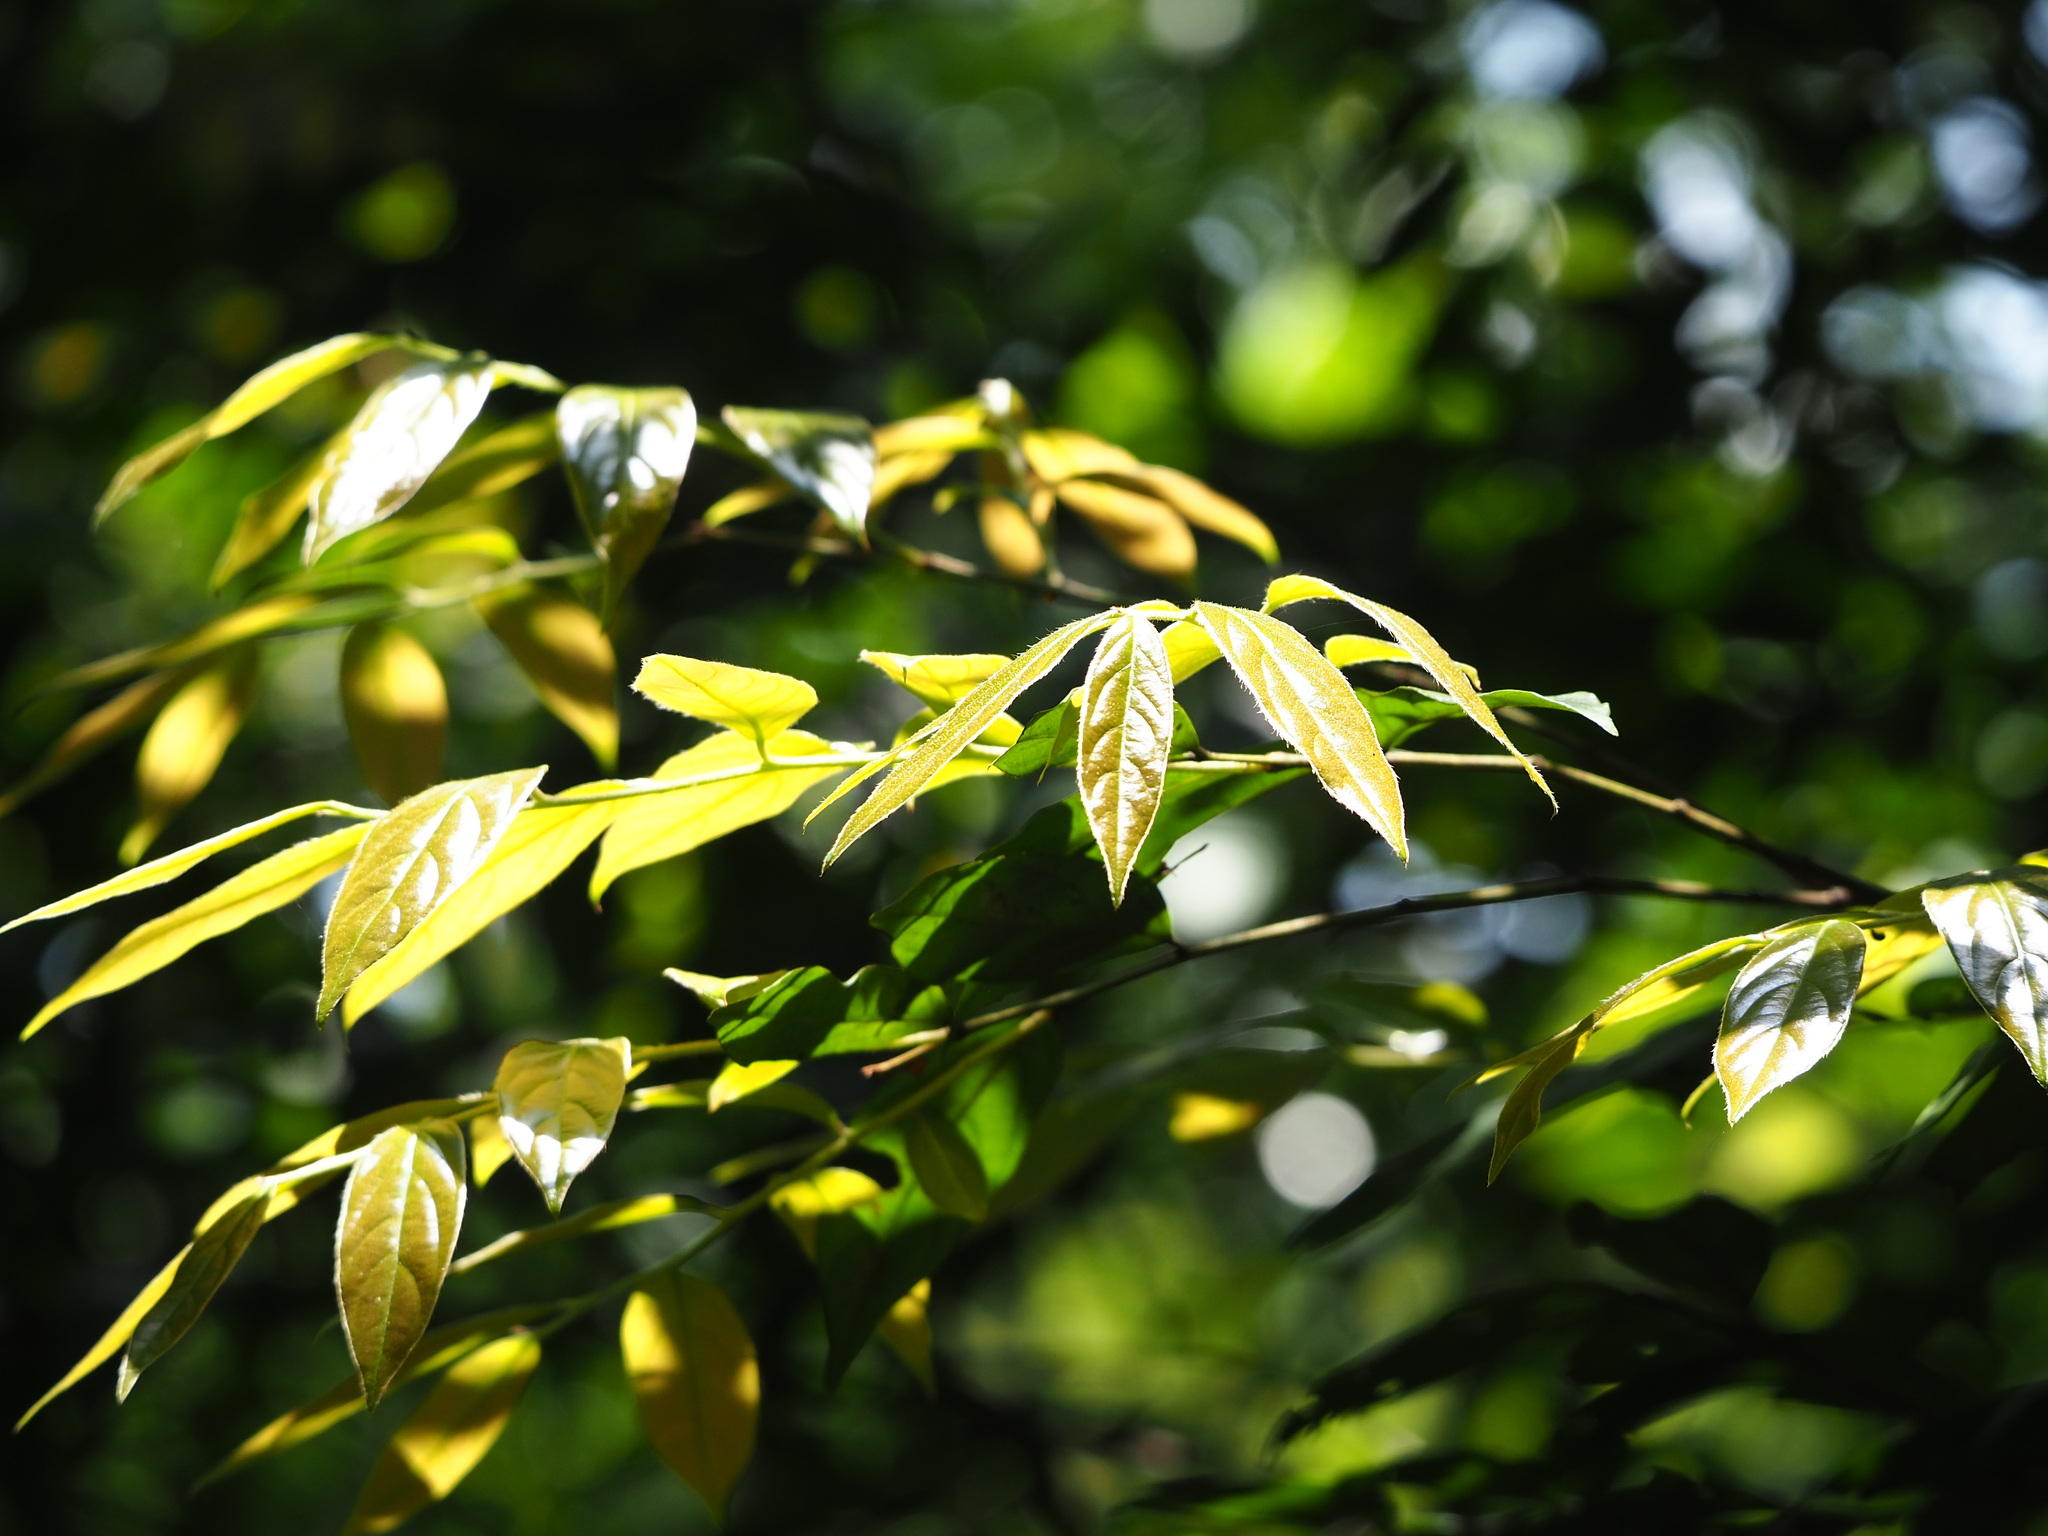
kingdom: Plantae
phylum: Tracheophyta
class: Magnoliopsida
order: Ericales
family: Ebenaceae
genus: Diospyros
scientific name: Diospyros eriantha
